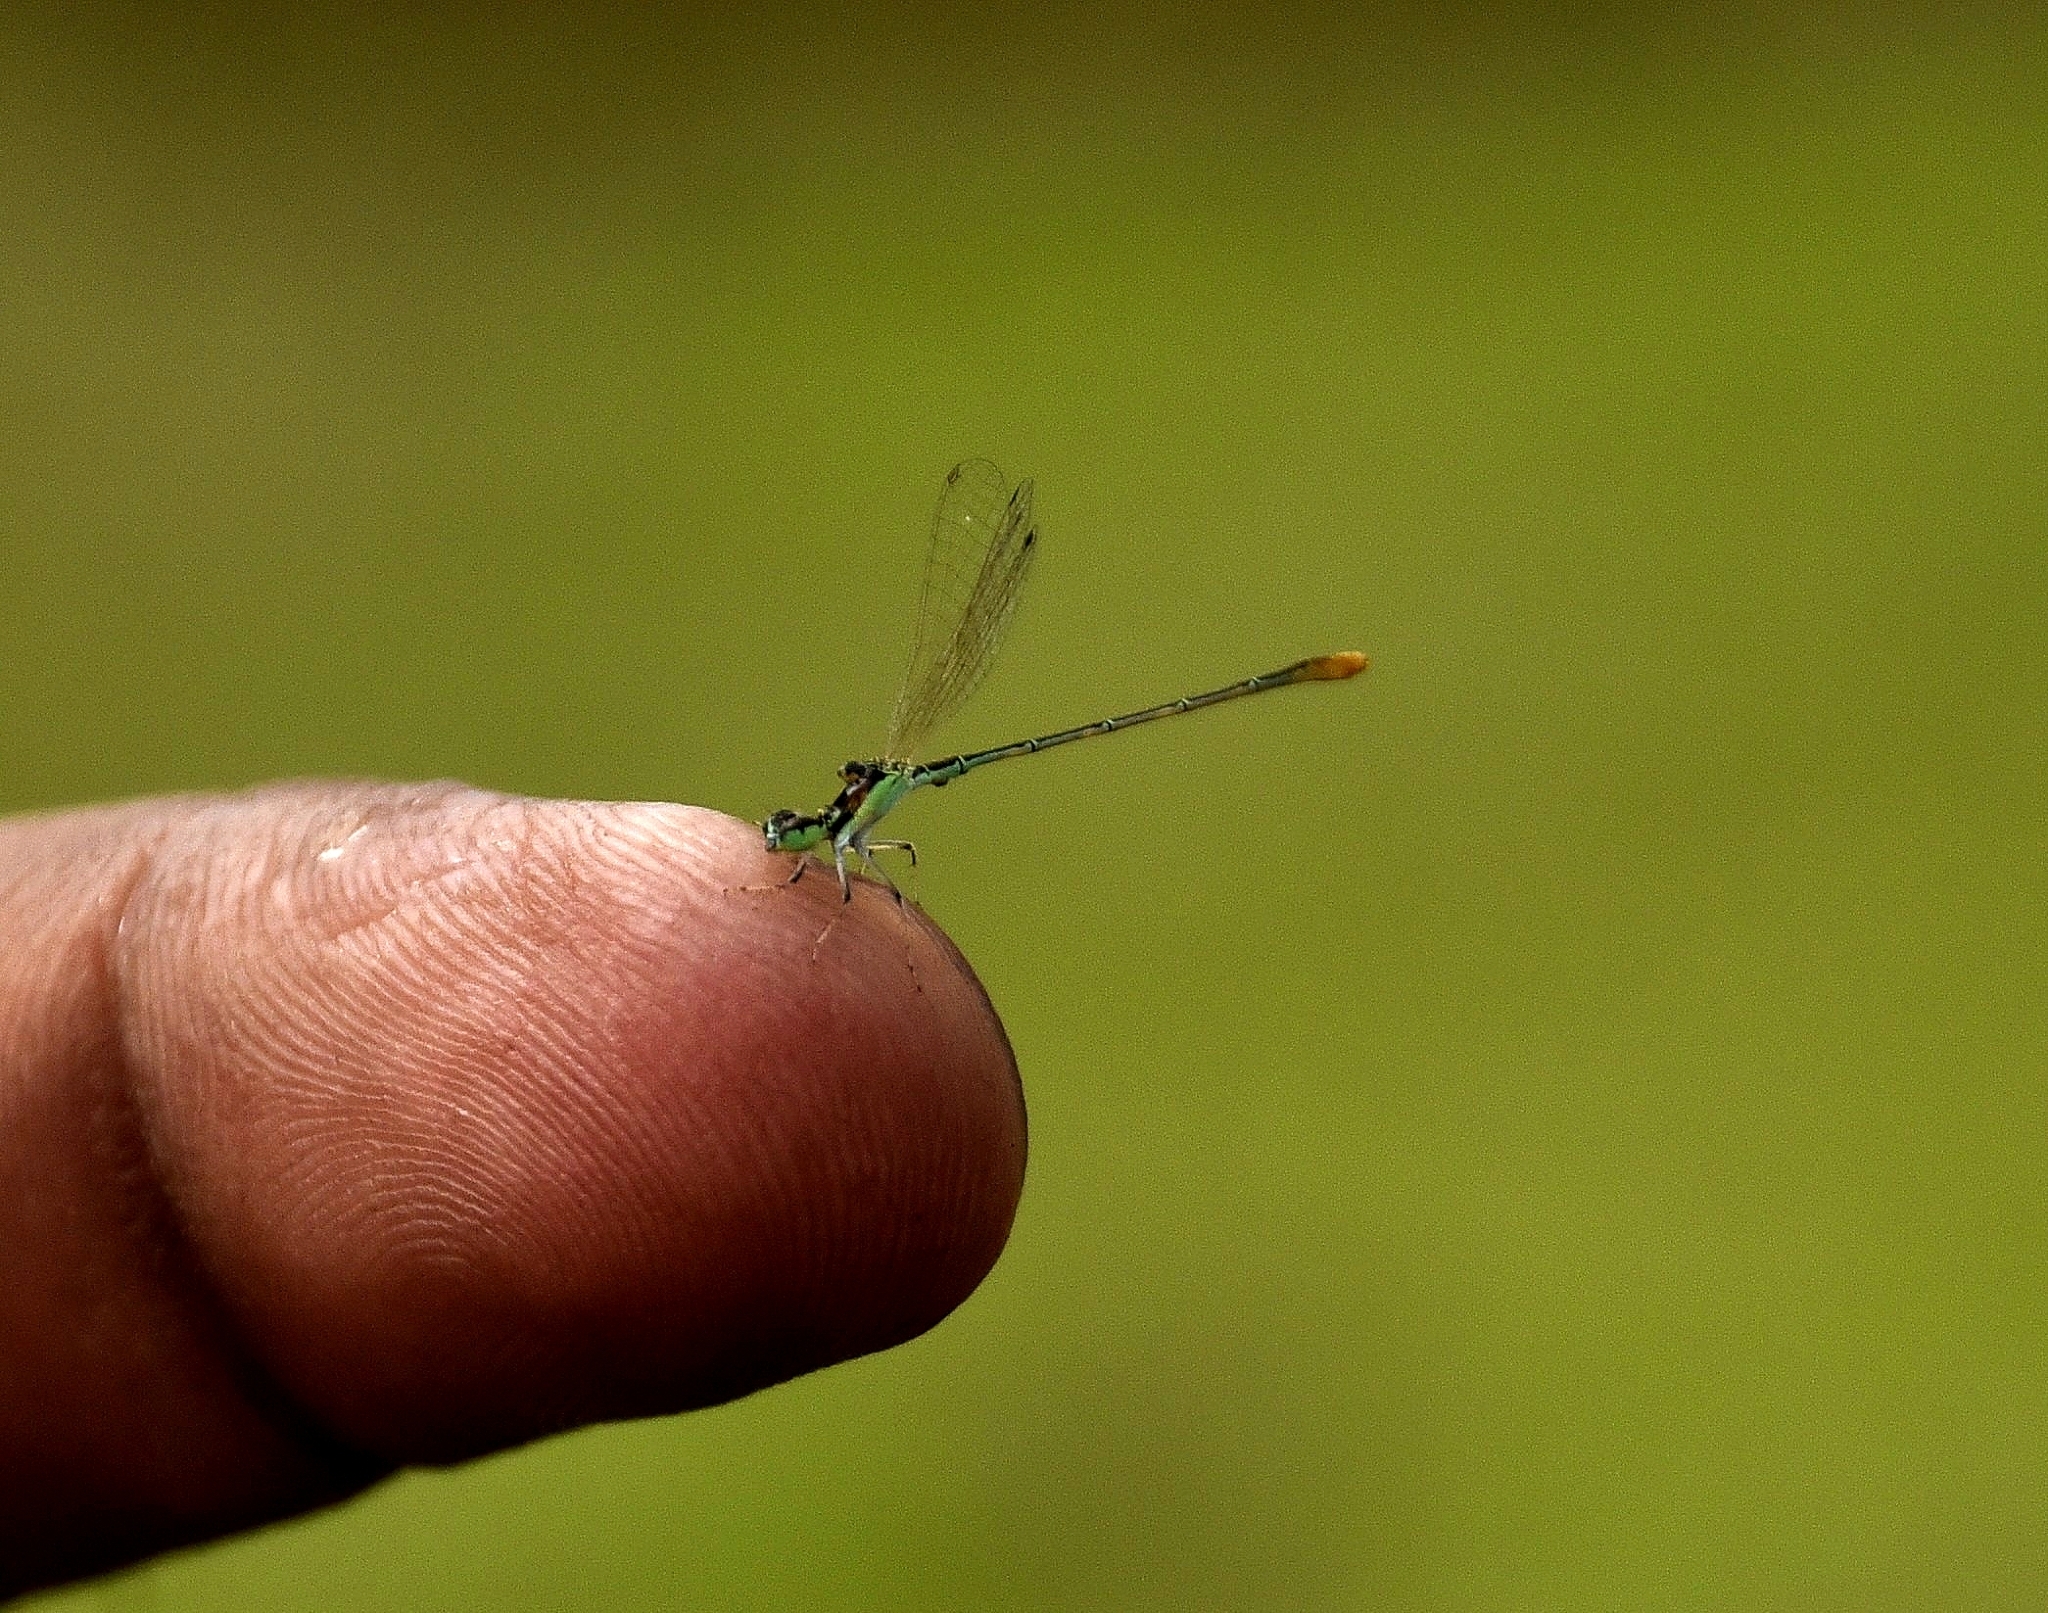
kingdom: Animalia
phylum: Arthropoda
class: Insecta
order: Odonata
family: Coenagrionidae
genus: Agriocnemis
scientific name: Agriocnemis pygmaea
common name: Pygmy wisp
